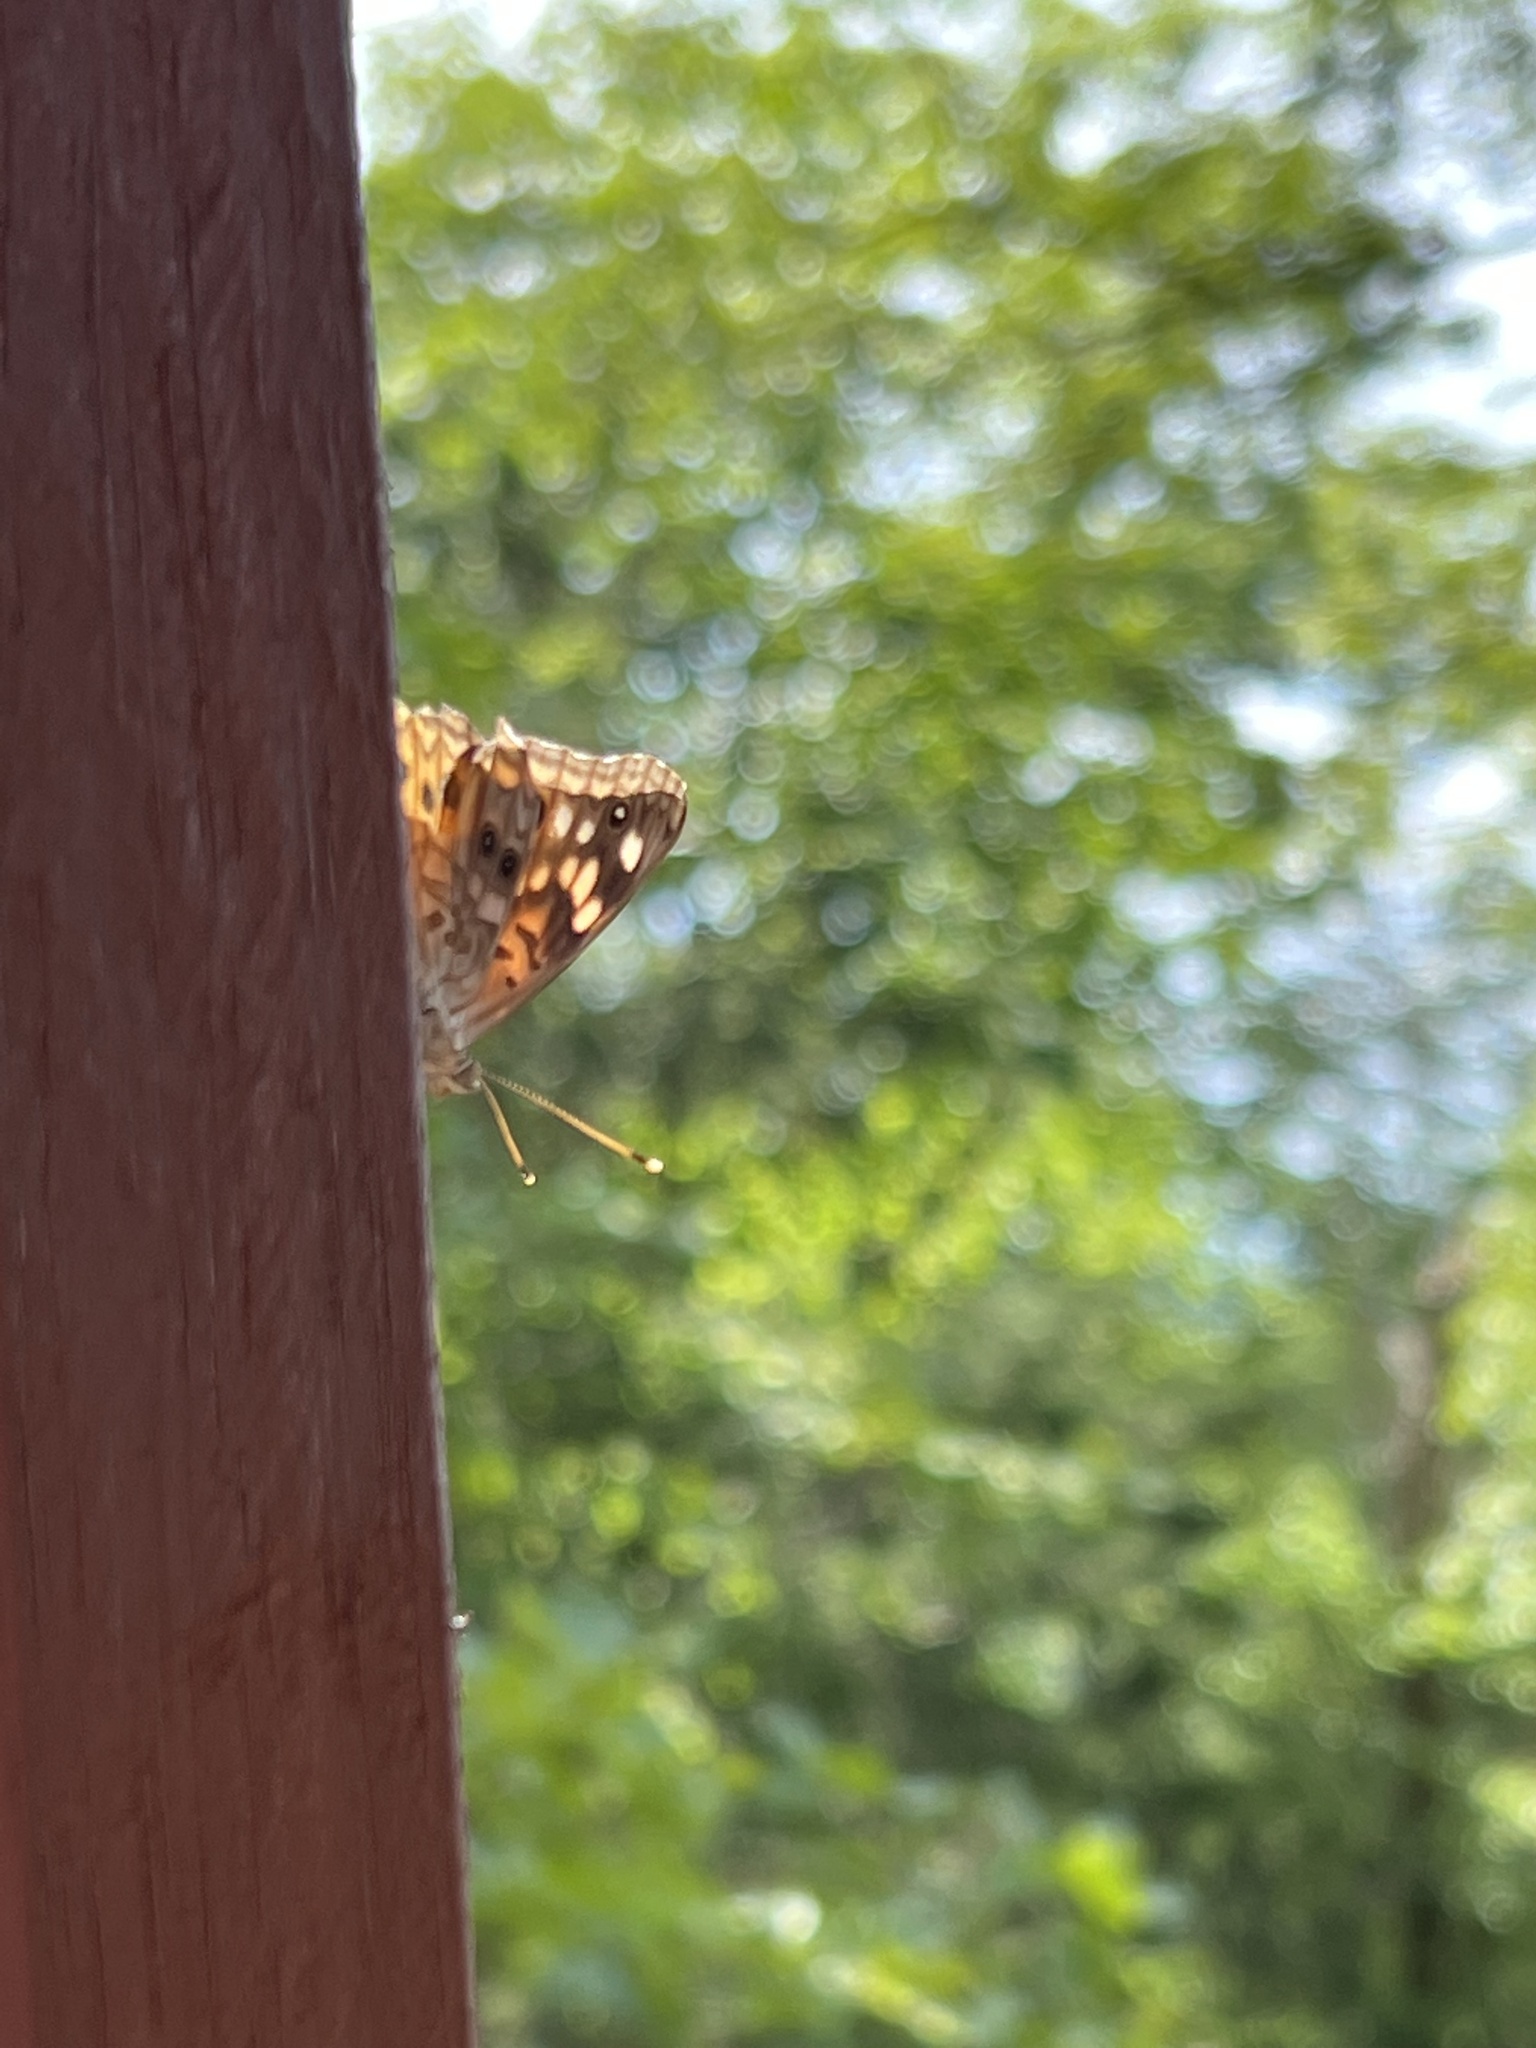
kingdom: Animalia
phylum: Arthropoda
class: Insecta
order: Lepidoptera
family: Nymphalidae
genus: Asterocampa
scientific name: Asterocampa celtis
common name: Hackberry emperor
